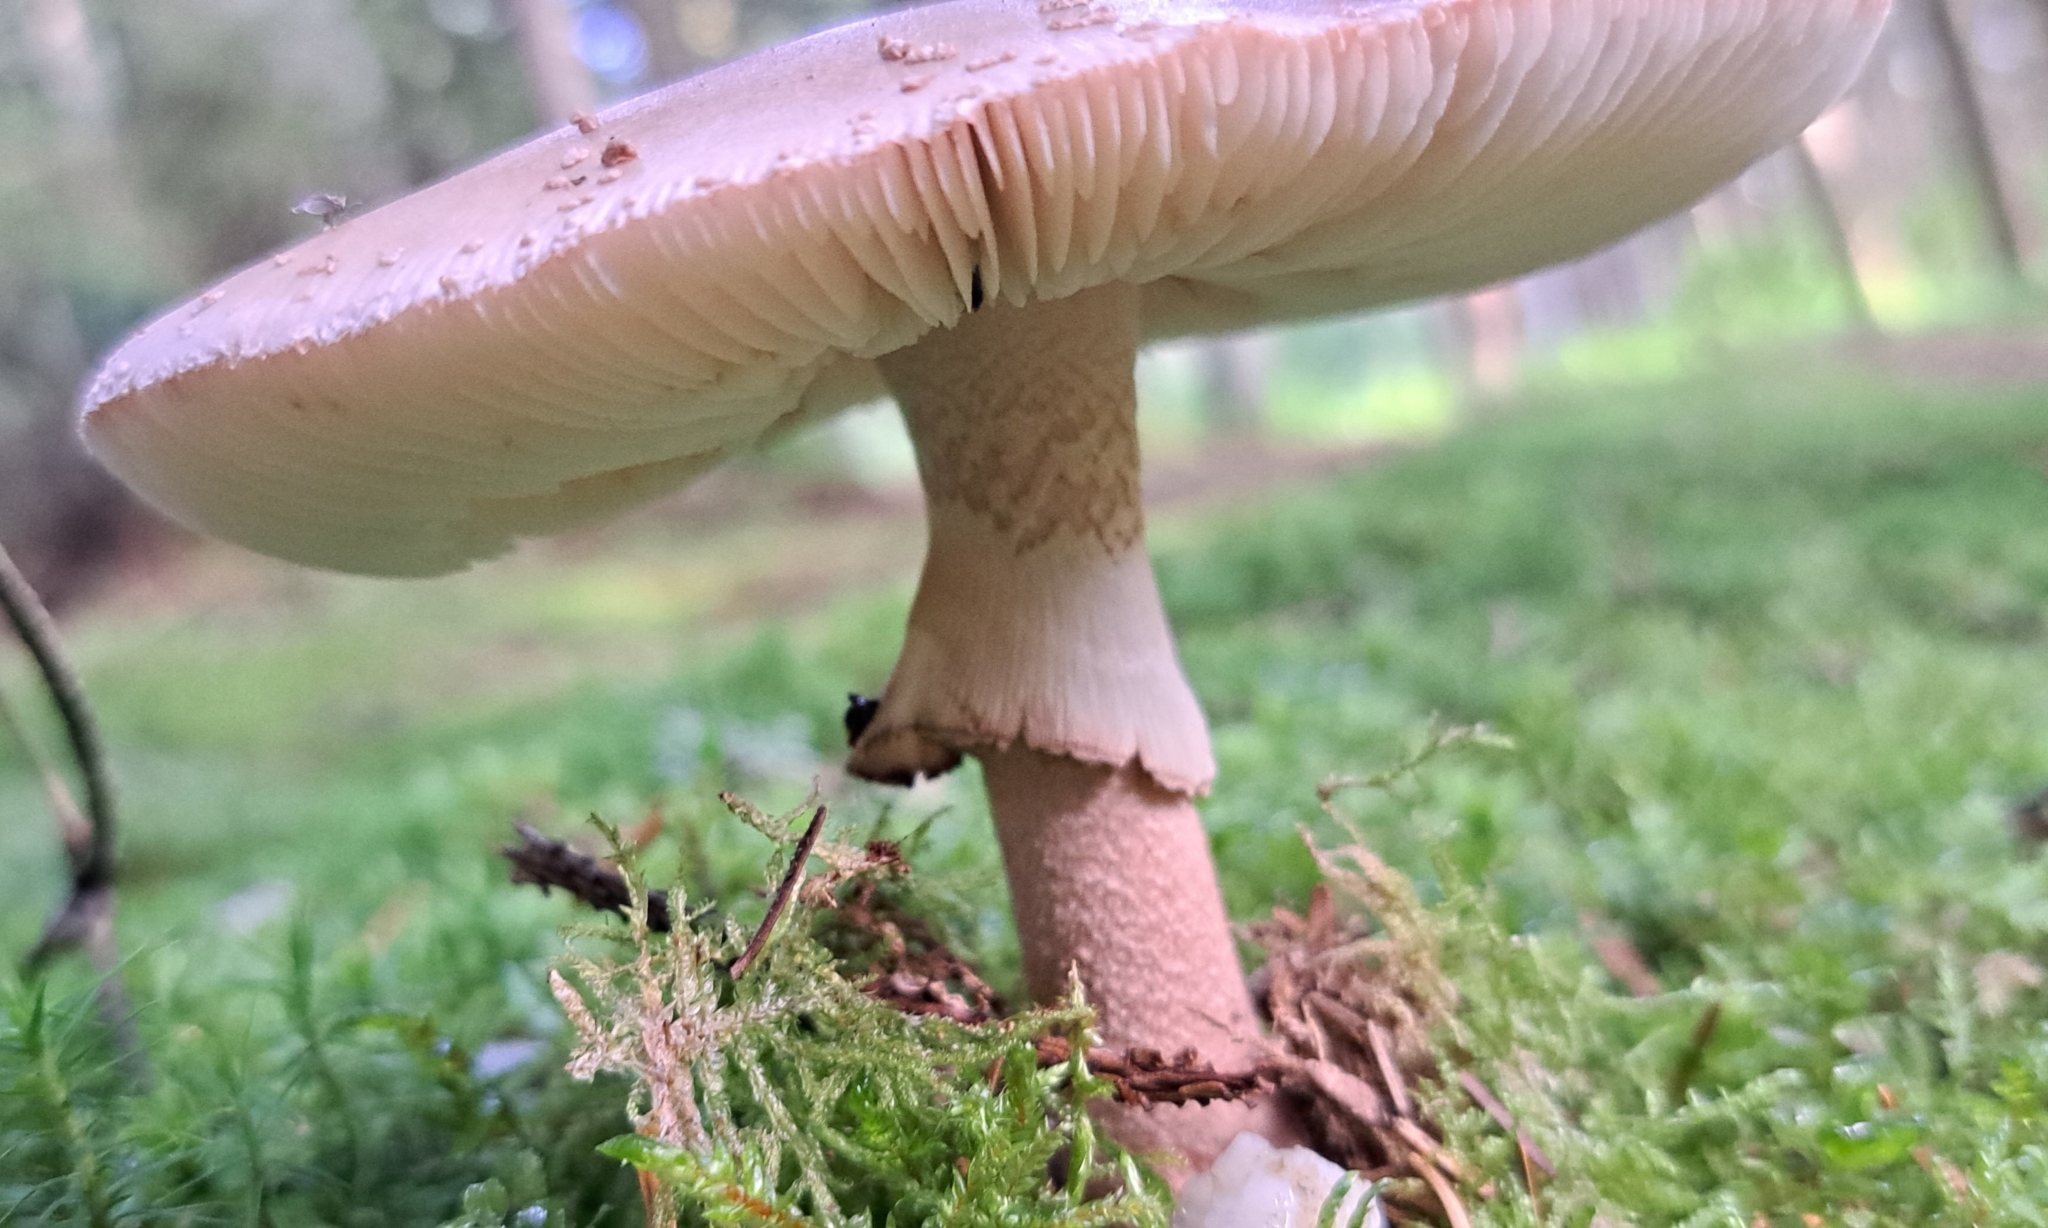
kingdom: Fungi
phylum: Basidiomycota
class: Agaricomycetes
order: Agaricales
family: Amanitaceae
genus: Amanita
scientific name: Amanita rubescens
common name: Blusher
